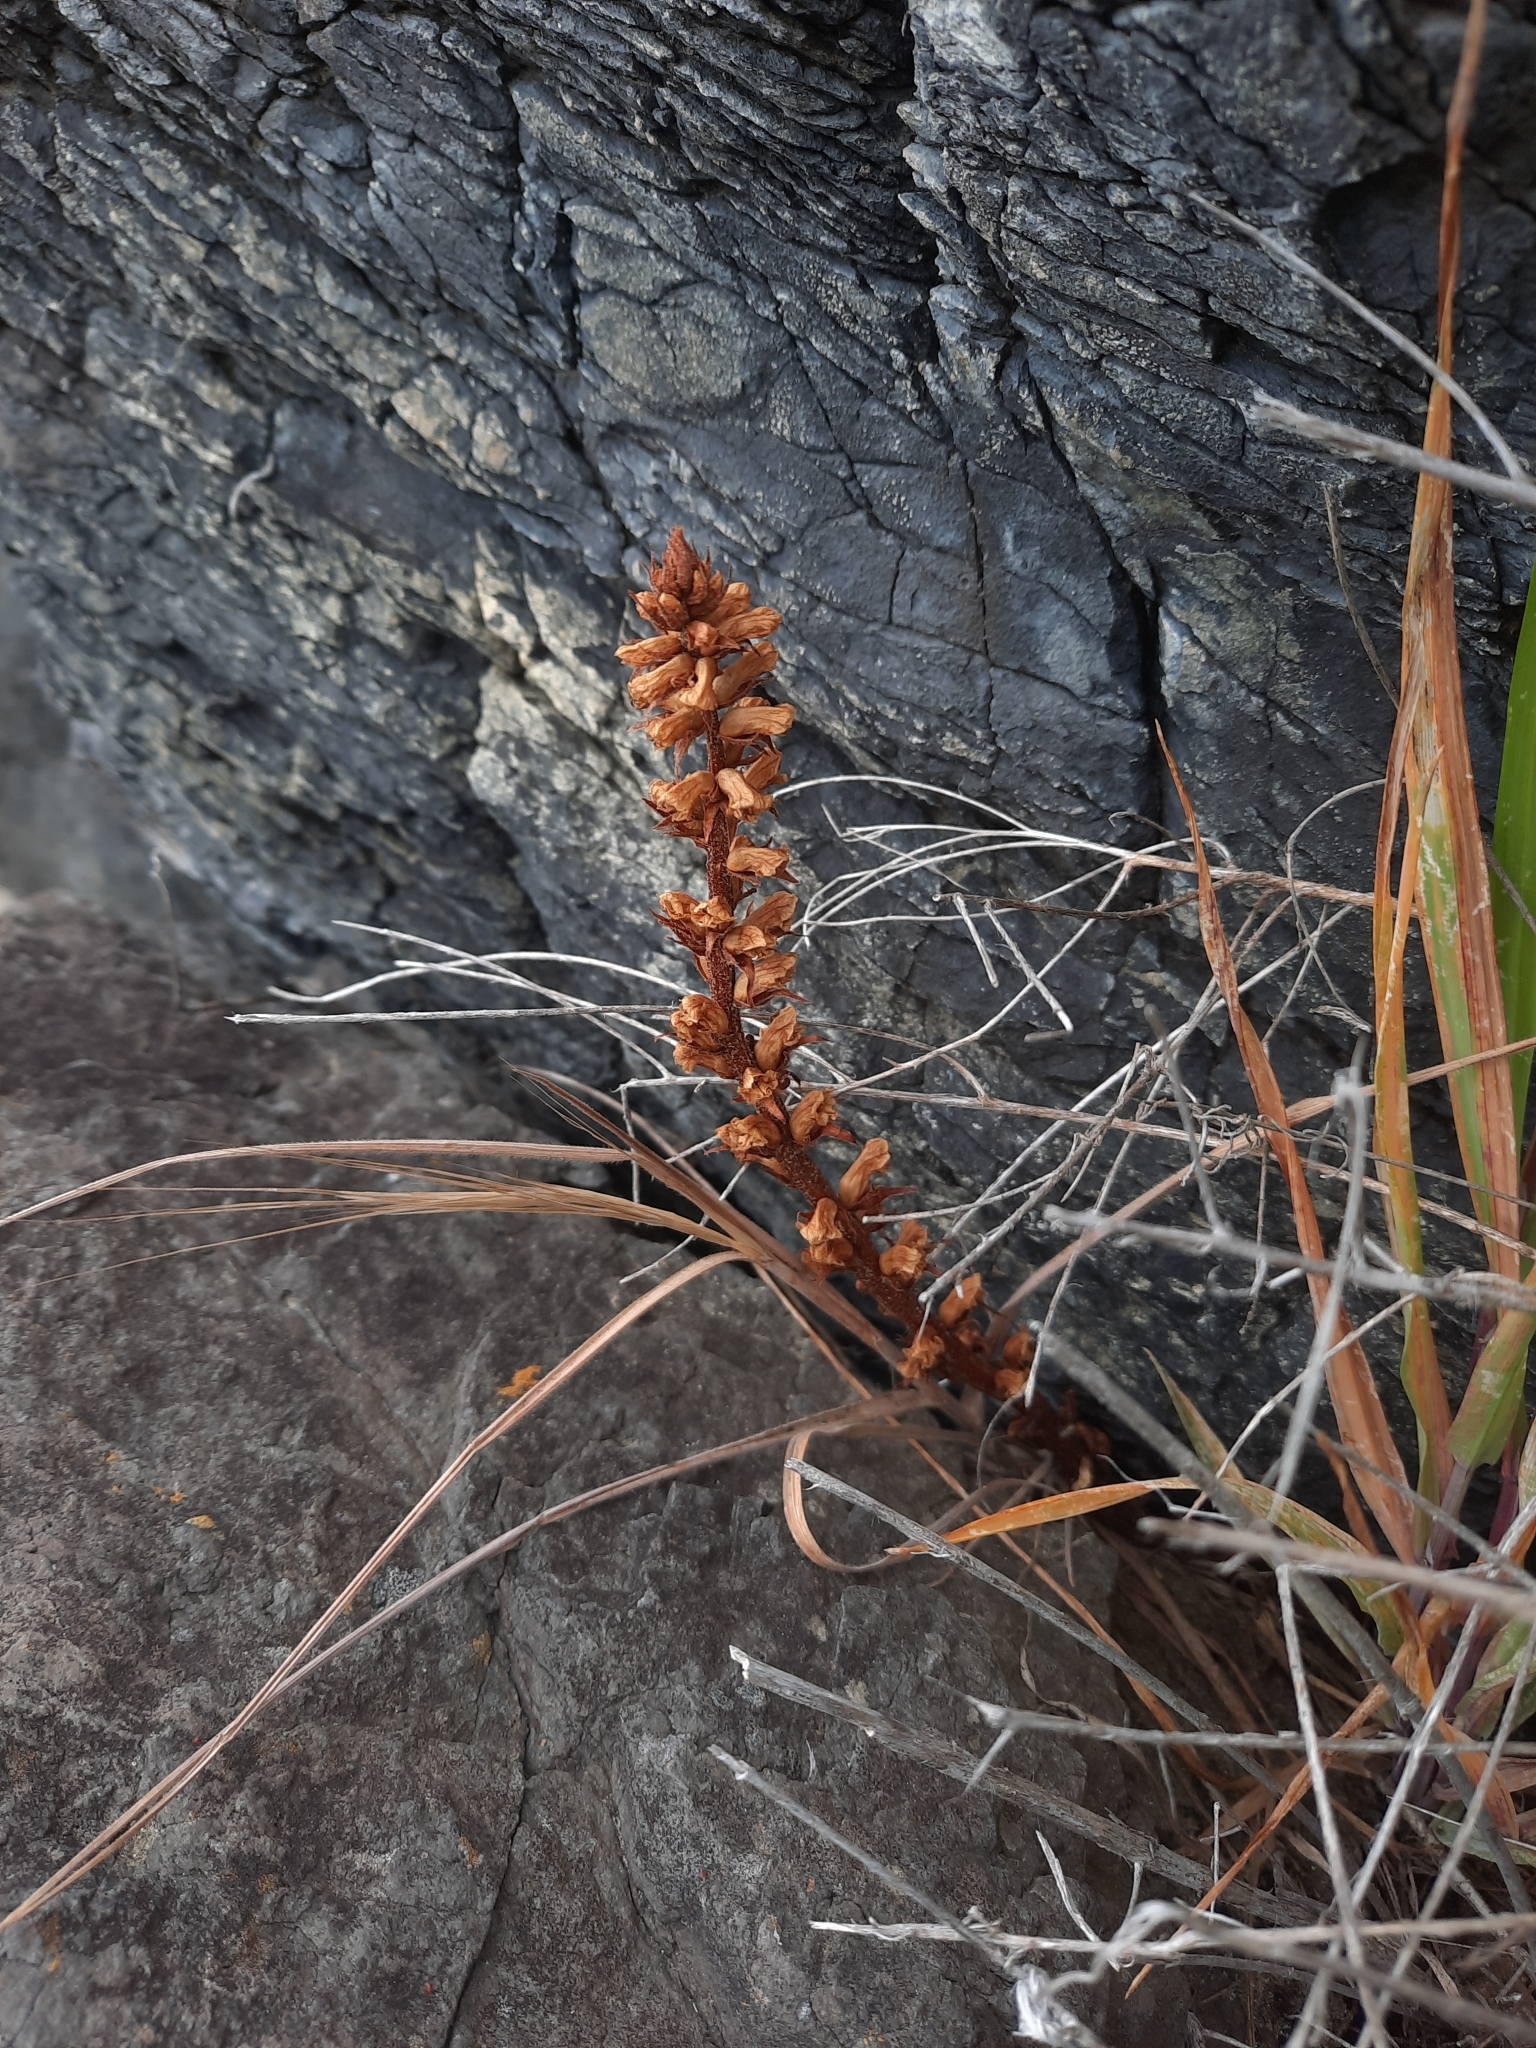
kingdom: Plantae
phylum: Tracheophyta
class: Magnoliopsida
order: Lamiales
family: Orobanchaceae
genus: Orobanche
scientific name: Orobanche minor
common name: Common broomrape
